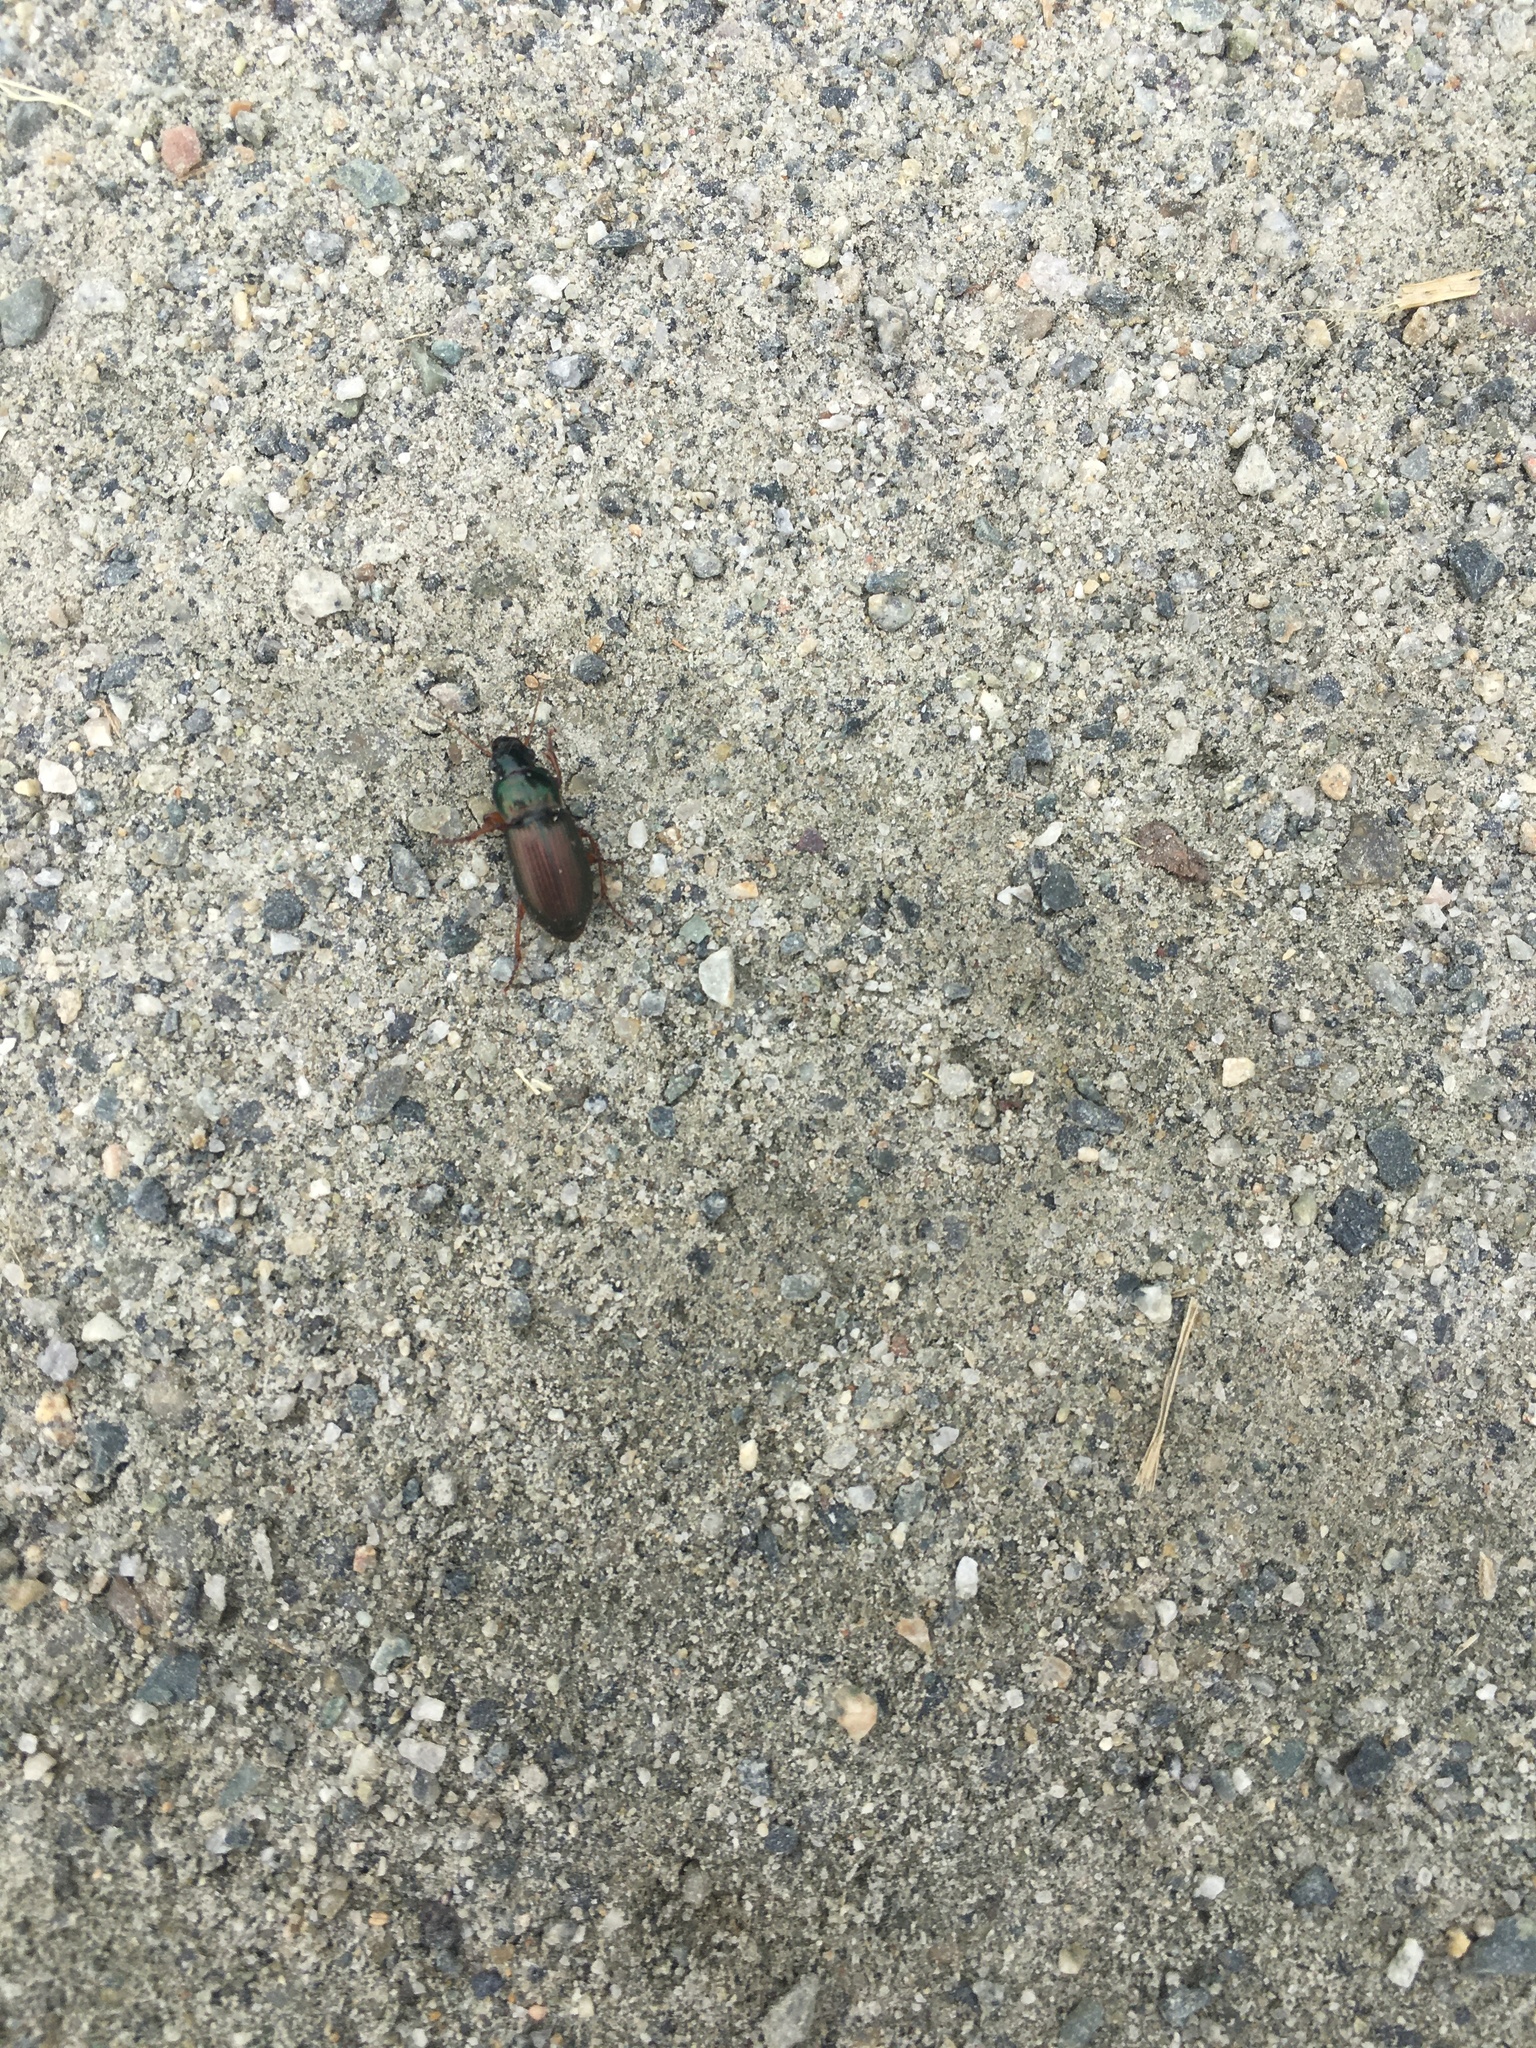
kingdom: Animalia
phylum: Arthropoda
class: Insecta
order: Coleoptera
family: Carabidae
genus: Harpalus
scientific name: Harpalus affinis
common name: Polychrome harp ground beetle
